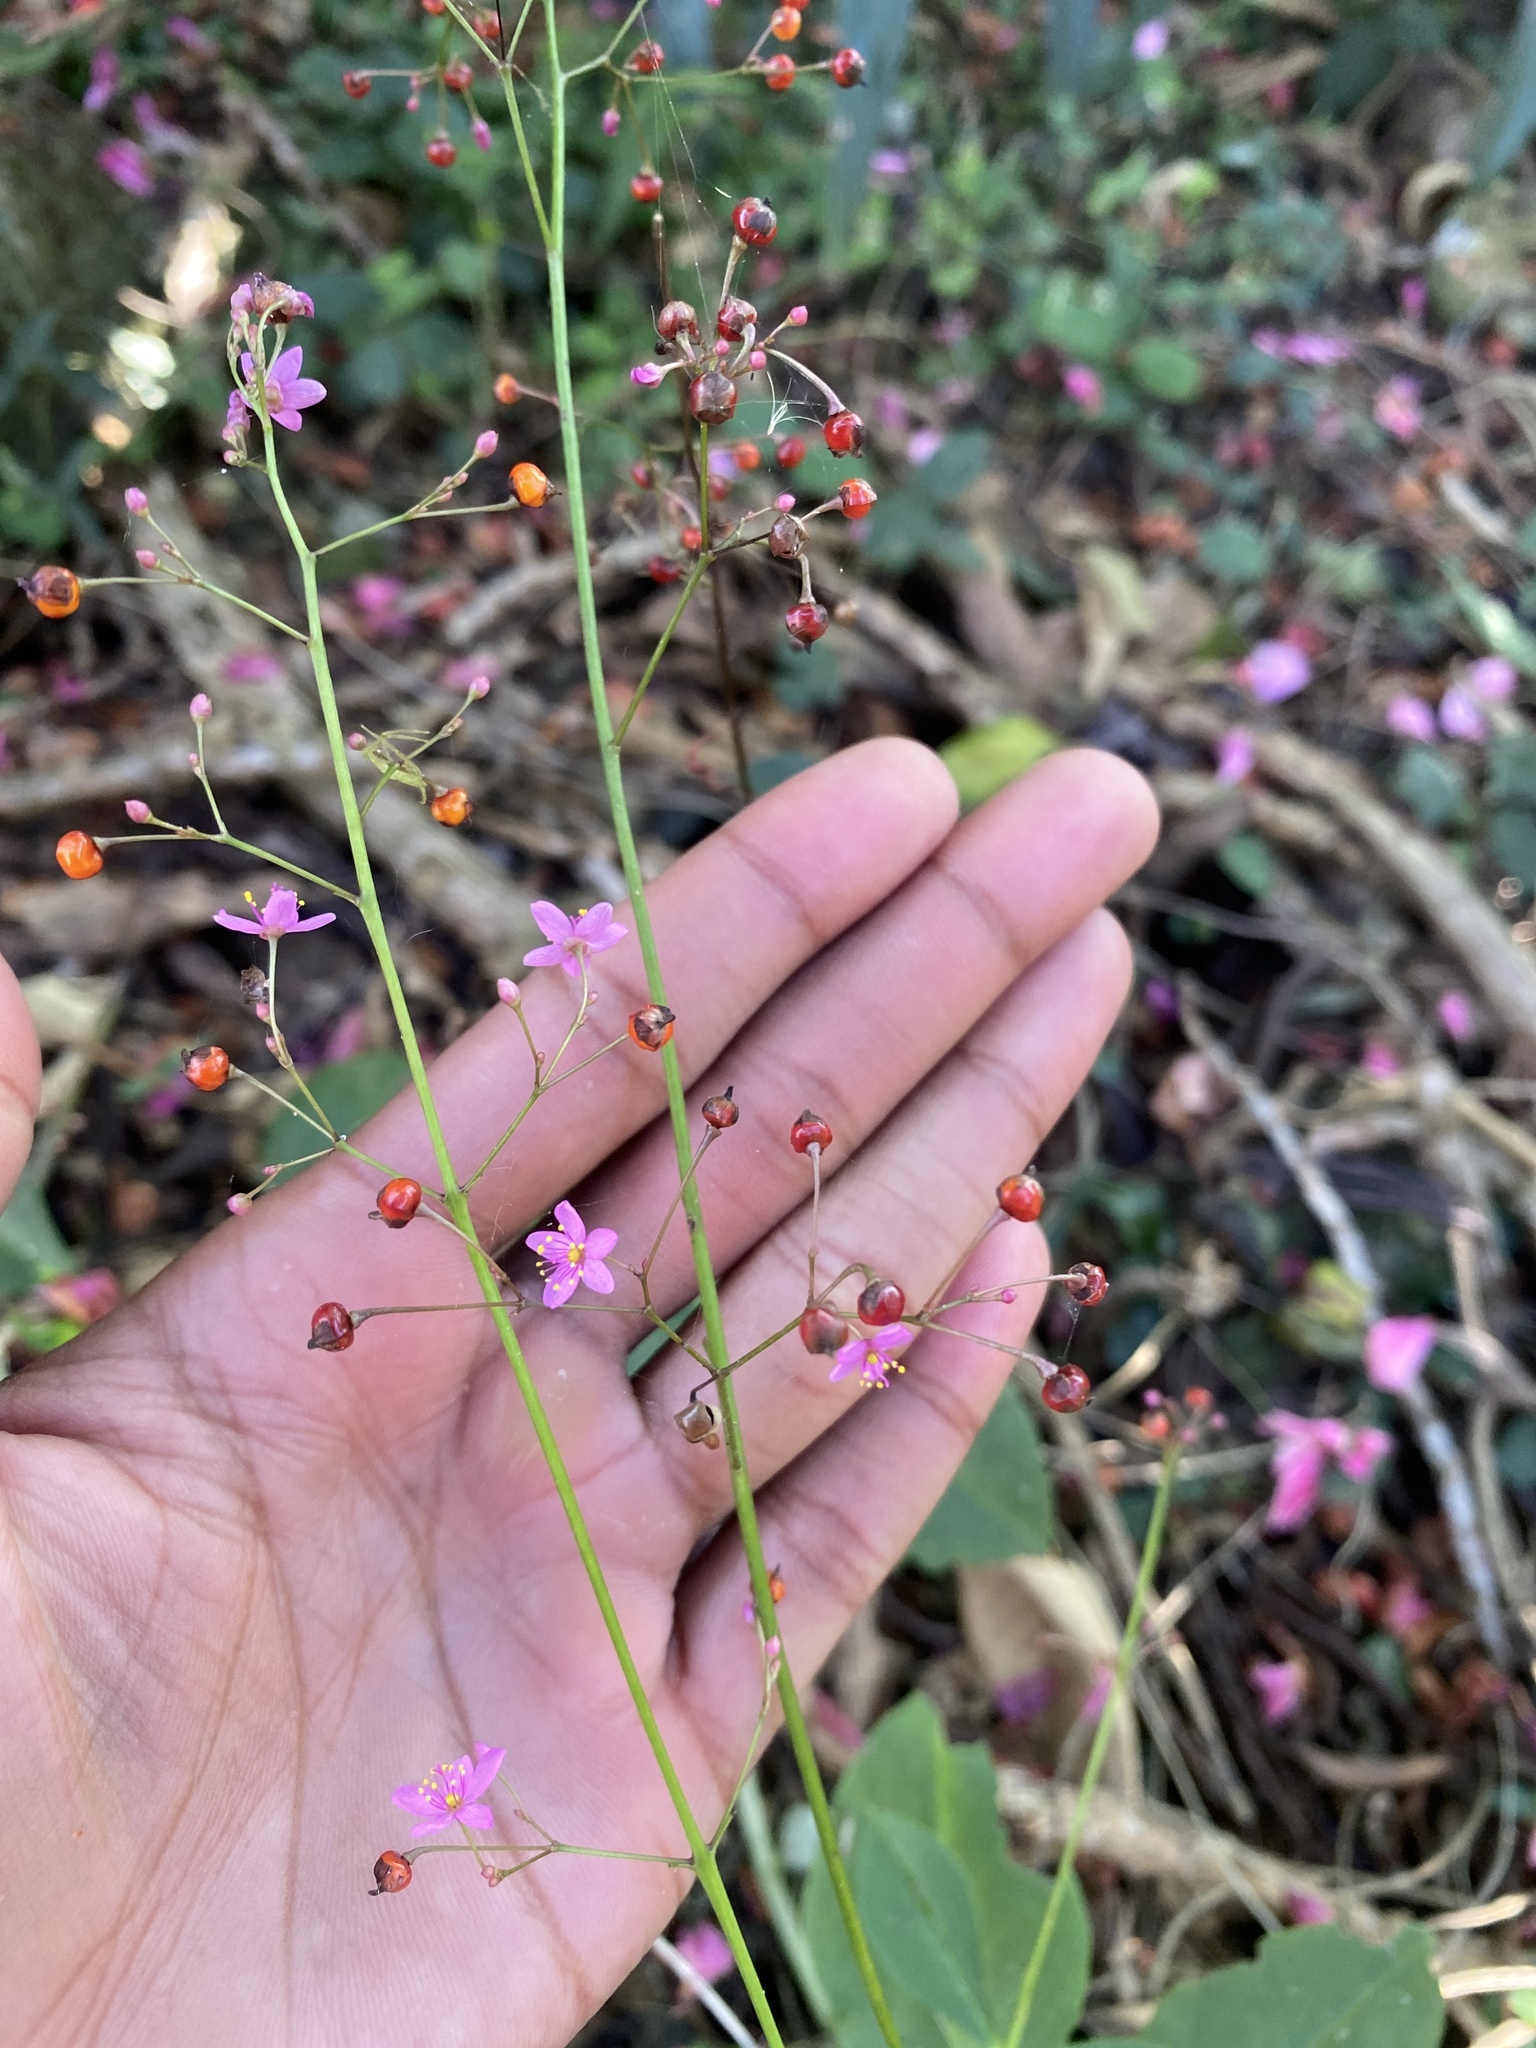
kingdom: Plantae
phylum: Tracheophyta
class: Magnoliopsida
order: Caryophyllales
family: Talinaceae
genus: Talinum
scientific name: Talinum paniculatum
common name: Jewels of opar
